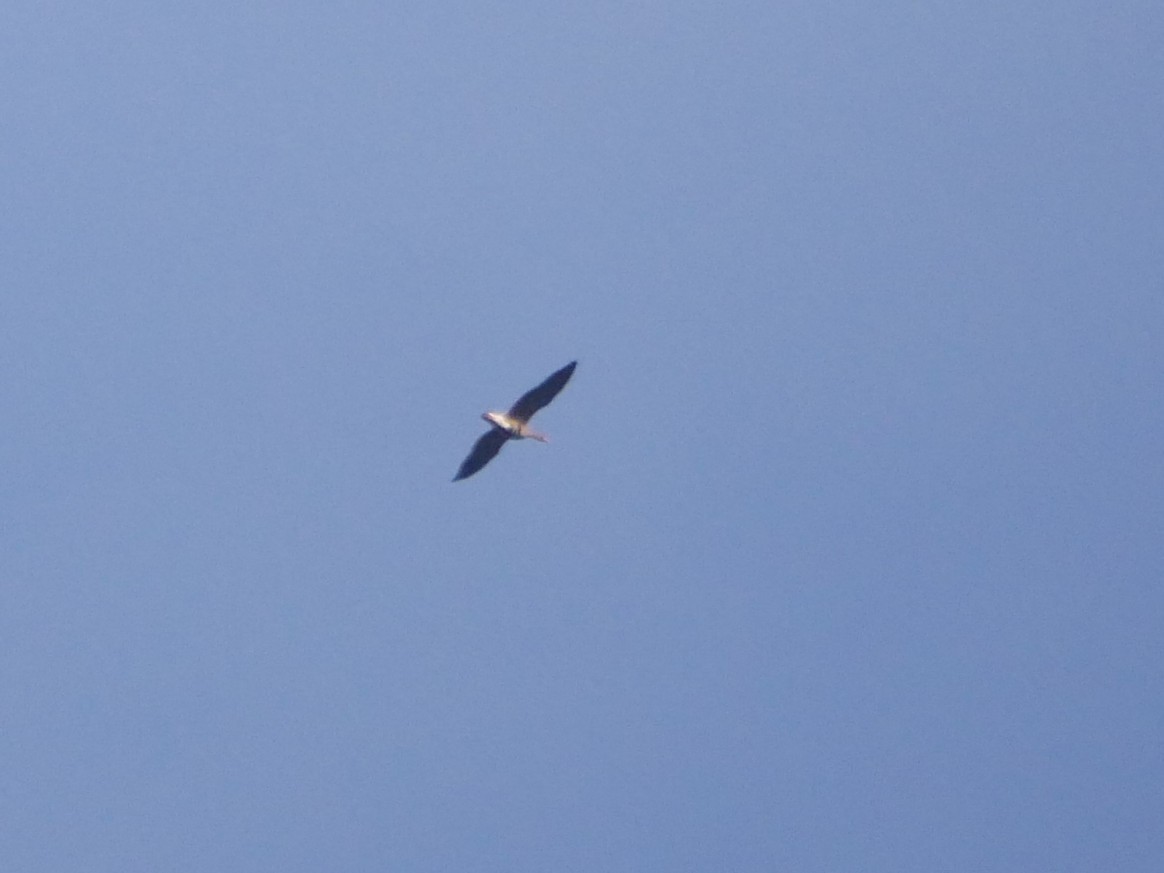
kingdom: Animalia
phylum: Chordata
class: Aves
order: Anseriformes
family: Anatidae
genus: Anser
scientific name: Anser albifrons
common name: Greater white-fronted goose
